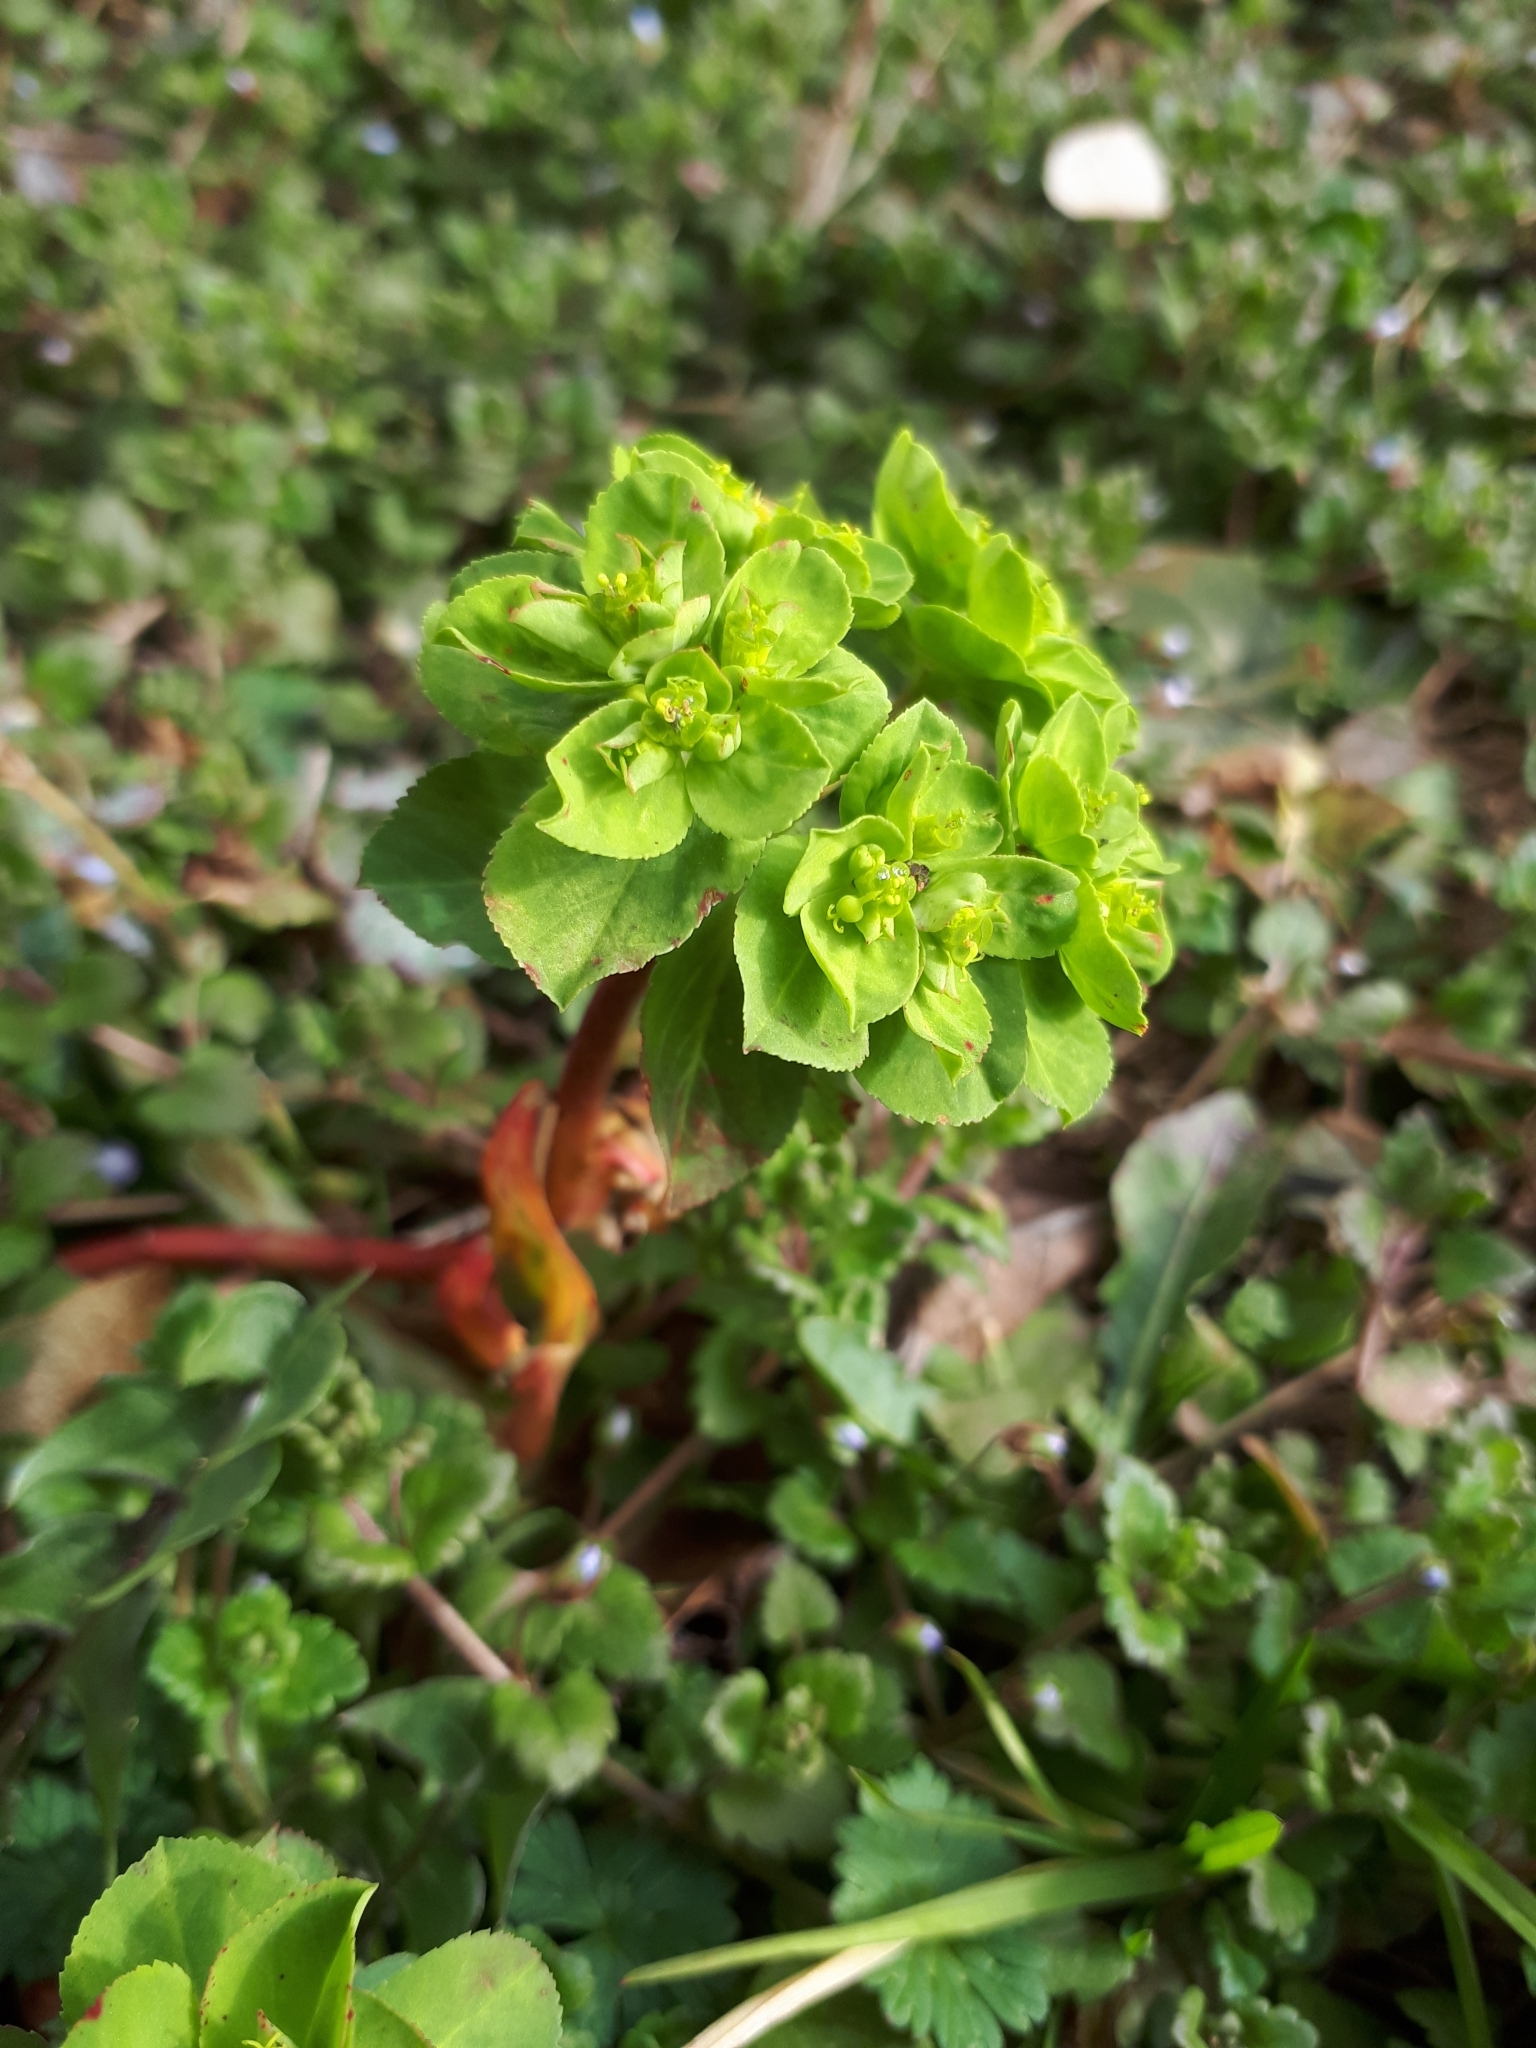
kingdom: Plantae
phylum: Tracheophyta
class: Magnoliopsida
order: Malpighiales
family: Euphorbiaceae
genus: Euphorbia
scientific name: Euphorbia helioscopia
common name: Sun spurge
